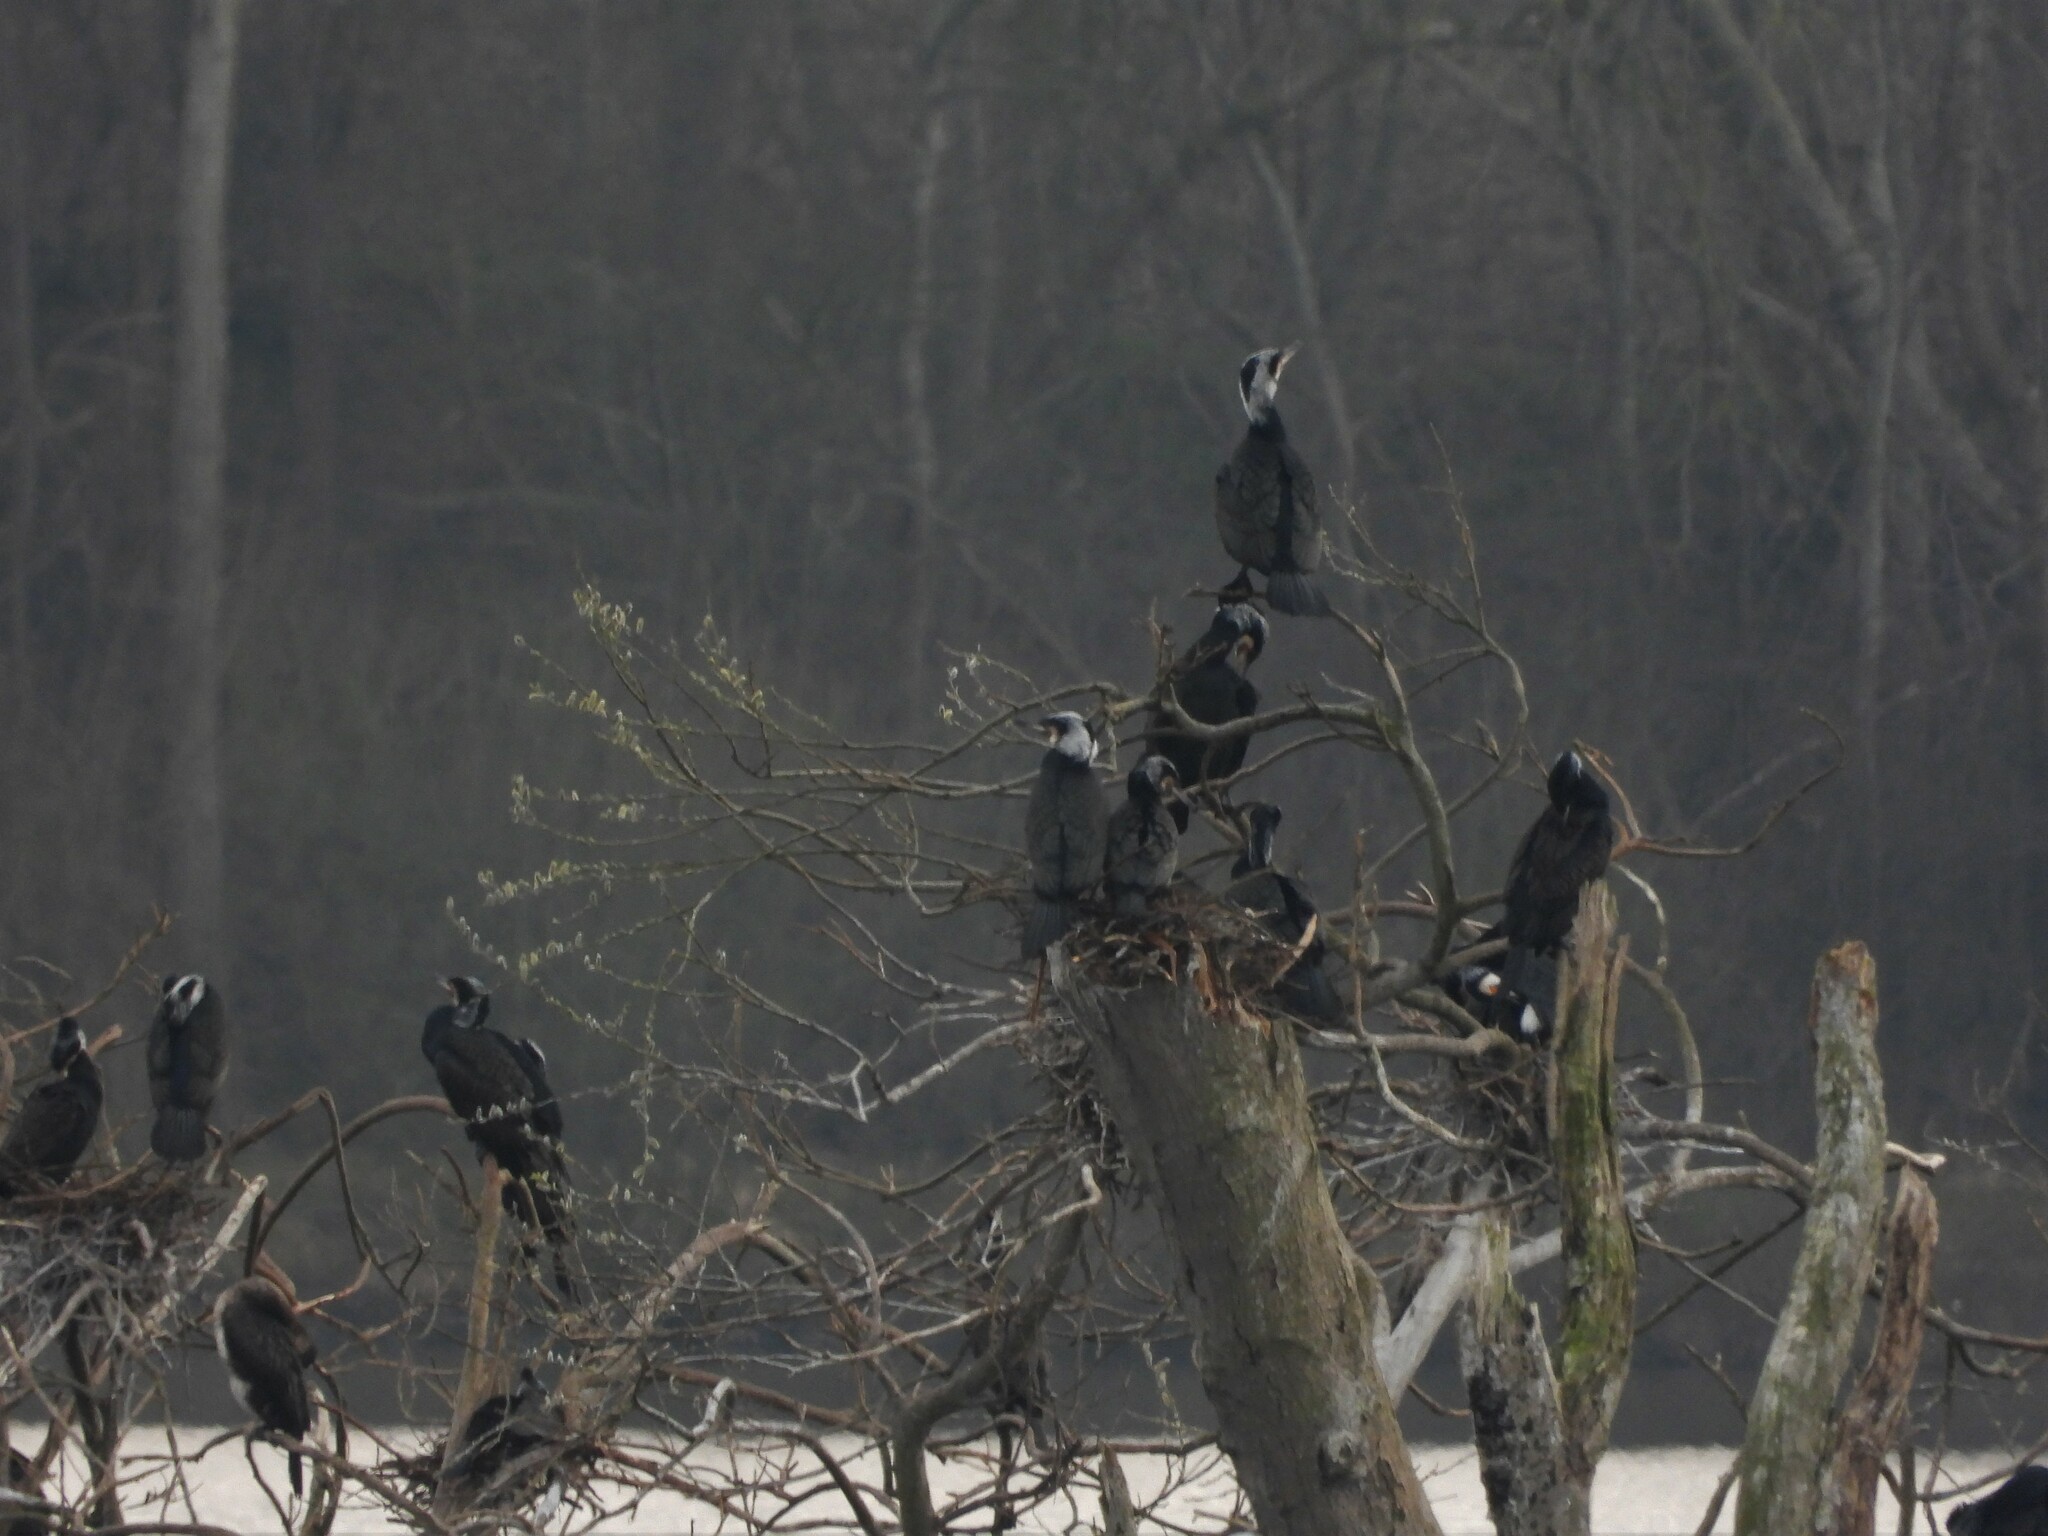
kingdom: Animalia
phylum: Chordata
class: Aves
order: Suliformes
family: Phalacrocoracidae
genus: Phalacrocorax
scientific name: Phalacrocorax carbo
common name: Great cormorant
